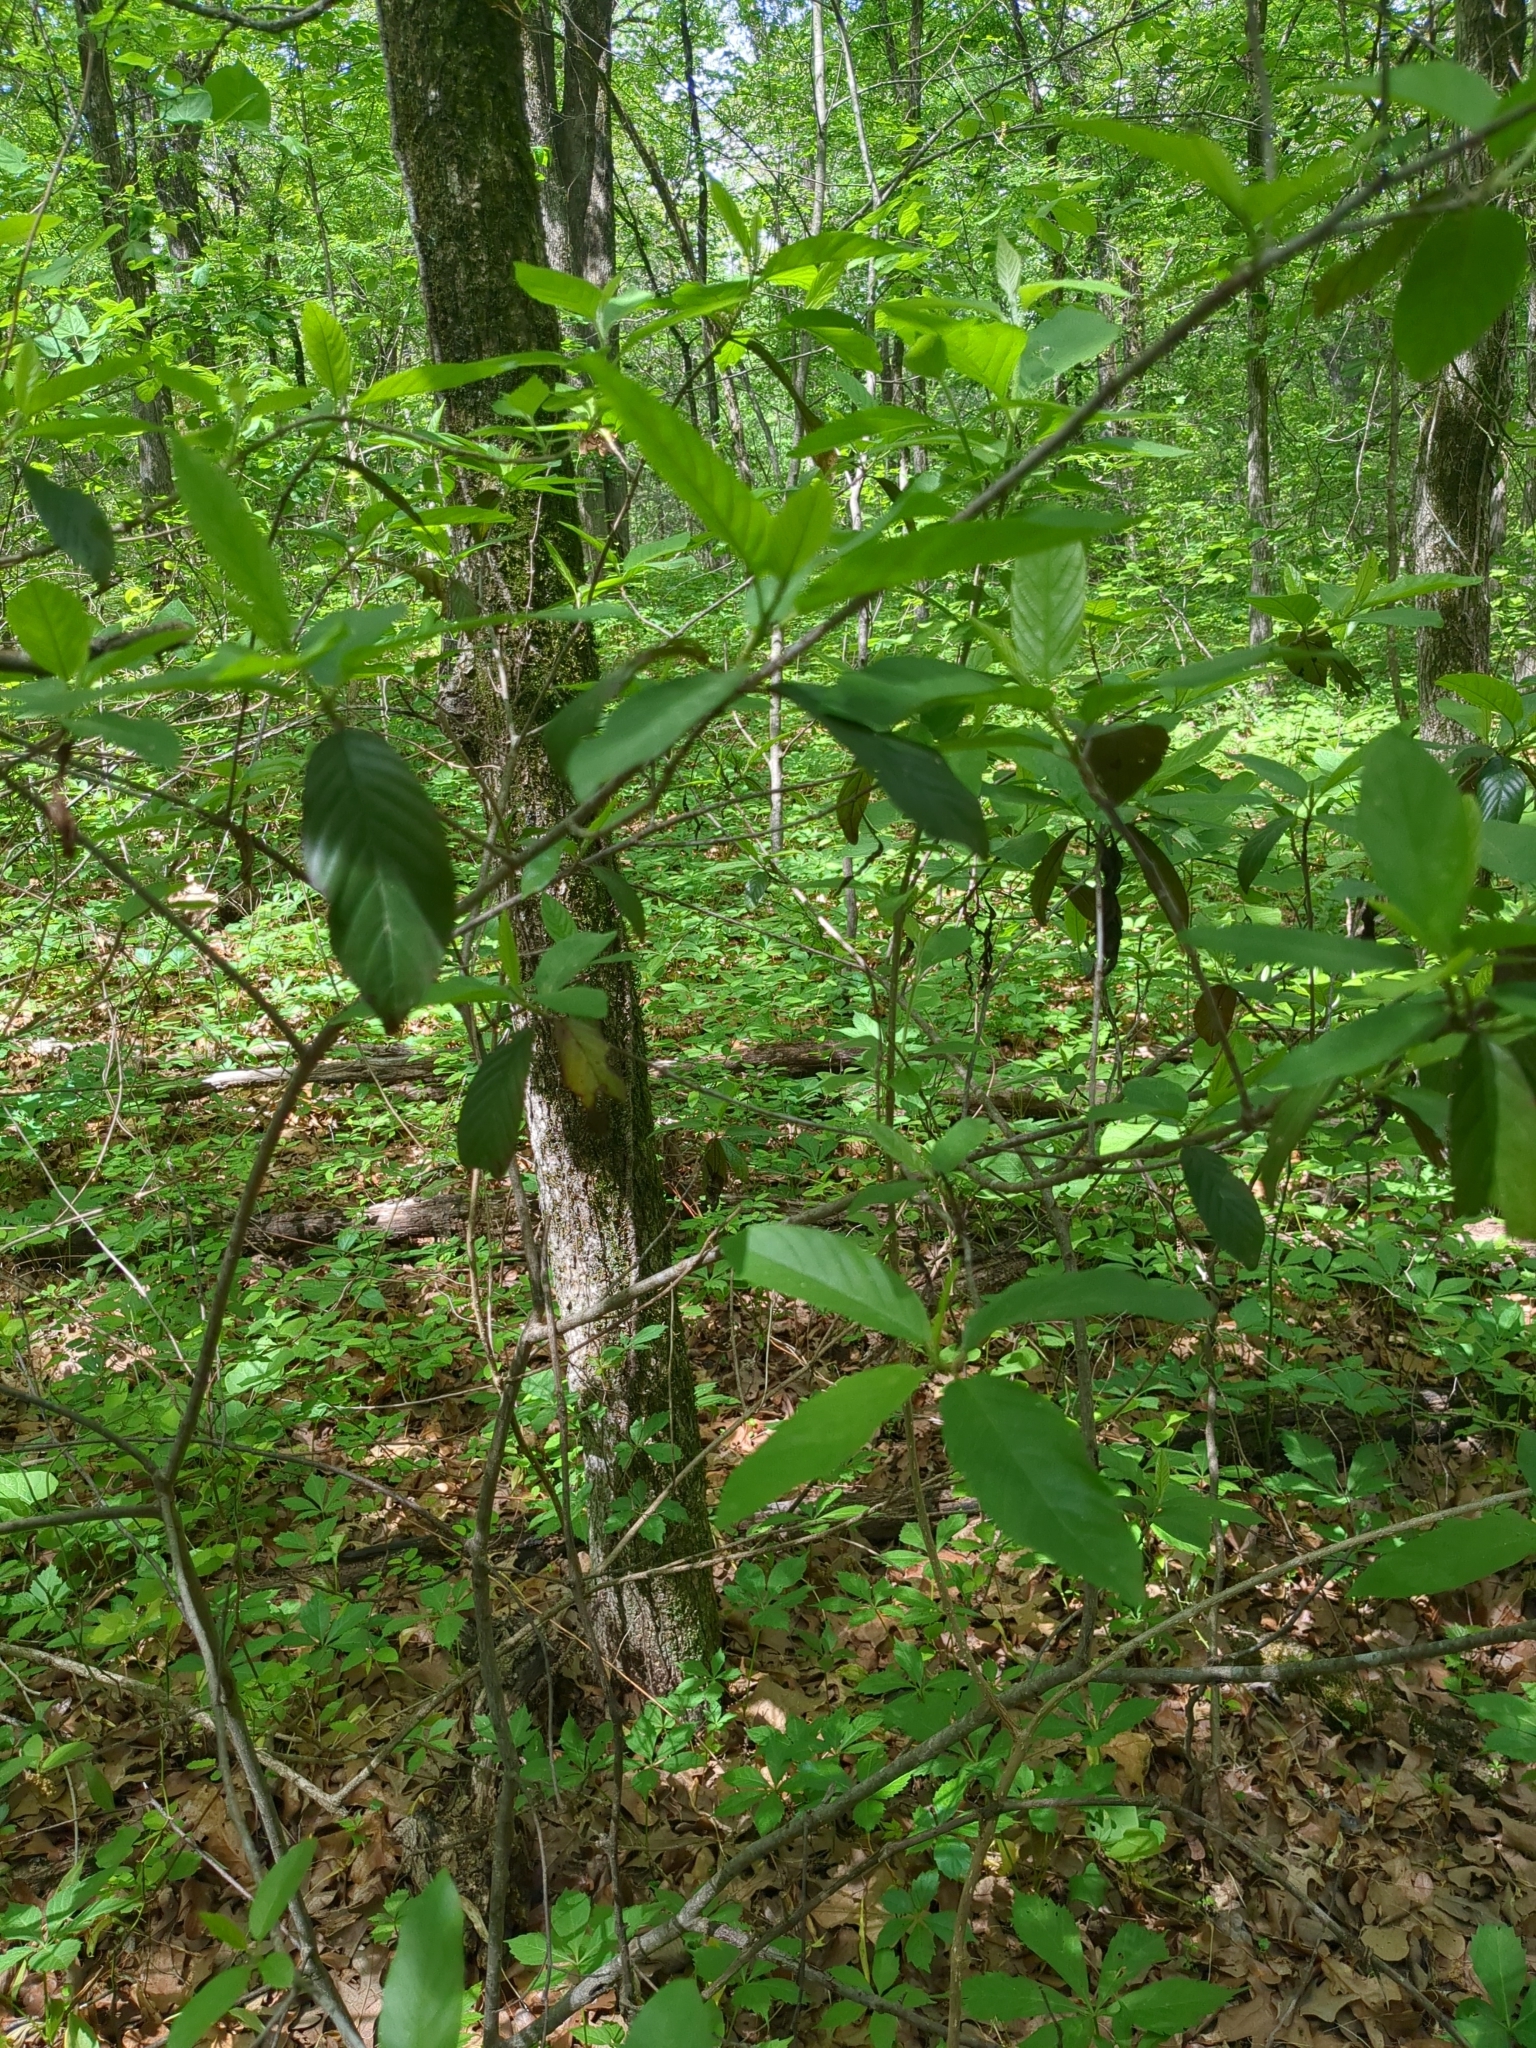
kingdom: Plantae
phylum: Tracheophyta
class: Magnoliopsida
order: Rosales
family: Rhamnaceae
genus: Frangula
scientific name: Frangula caroliniana
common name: Carolina buckthorn
